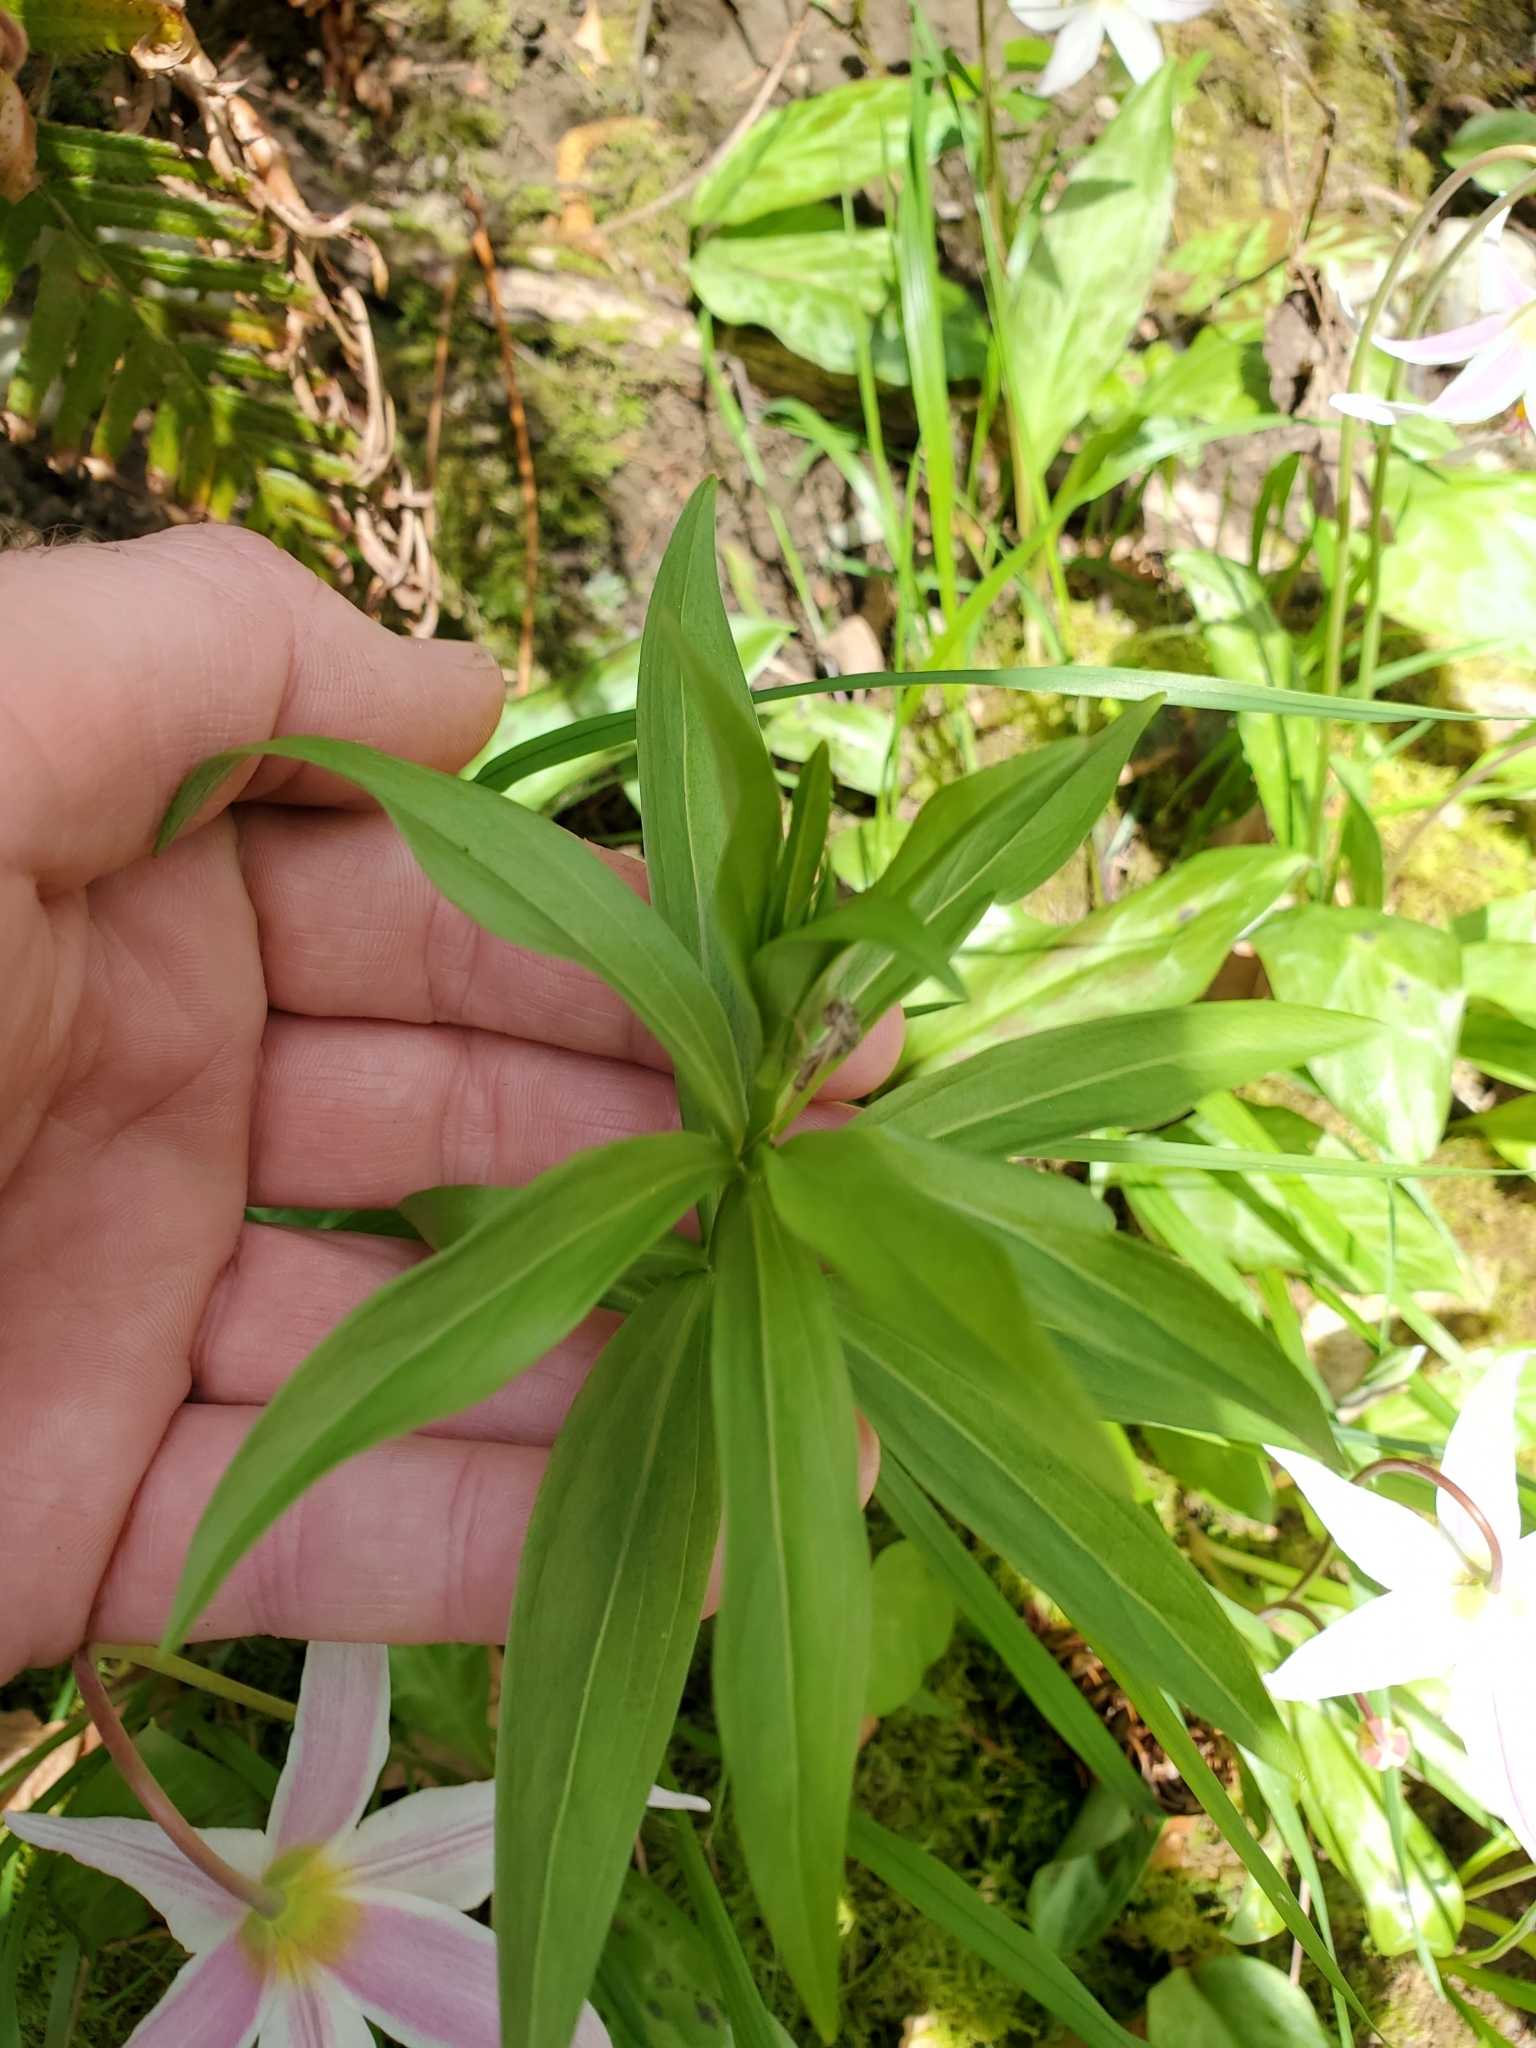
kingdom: Plantae
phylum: Tracheophyta
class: Liliopsida
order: Liliales
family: Liliaceae
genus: Lilium
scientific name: Lilium columbianum
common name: Columbia lily
